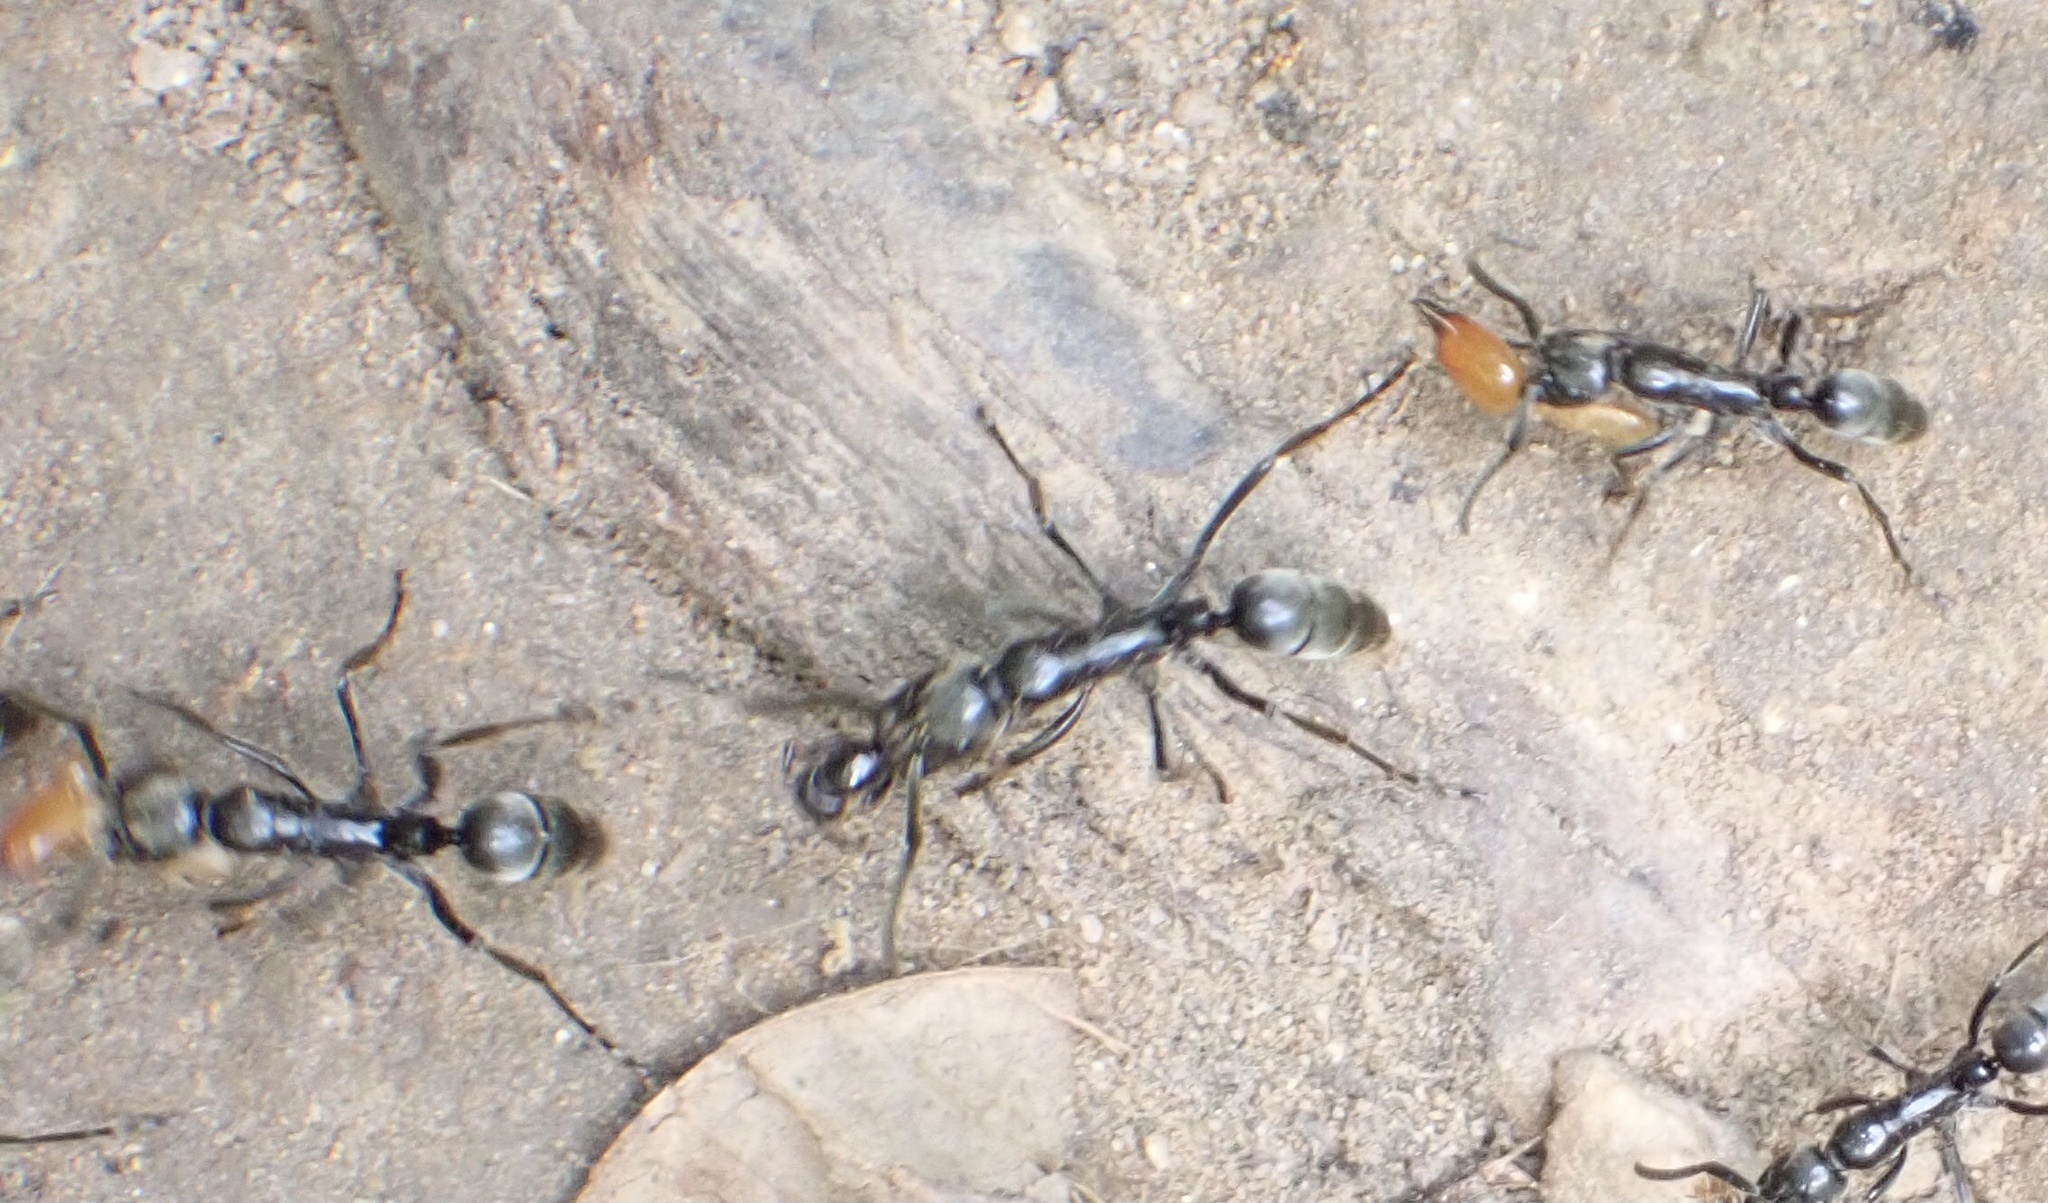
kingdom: Animalia
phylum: Arthropoda
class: Insecta
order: Hymenoptera
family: Formicidae
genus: Megaponera
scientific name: Megaponera analis
